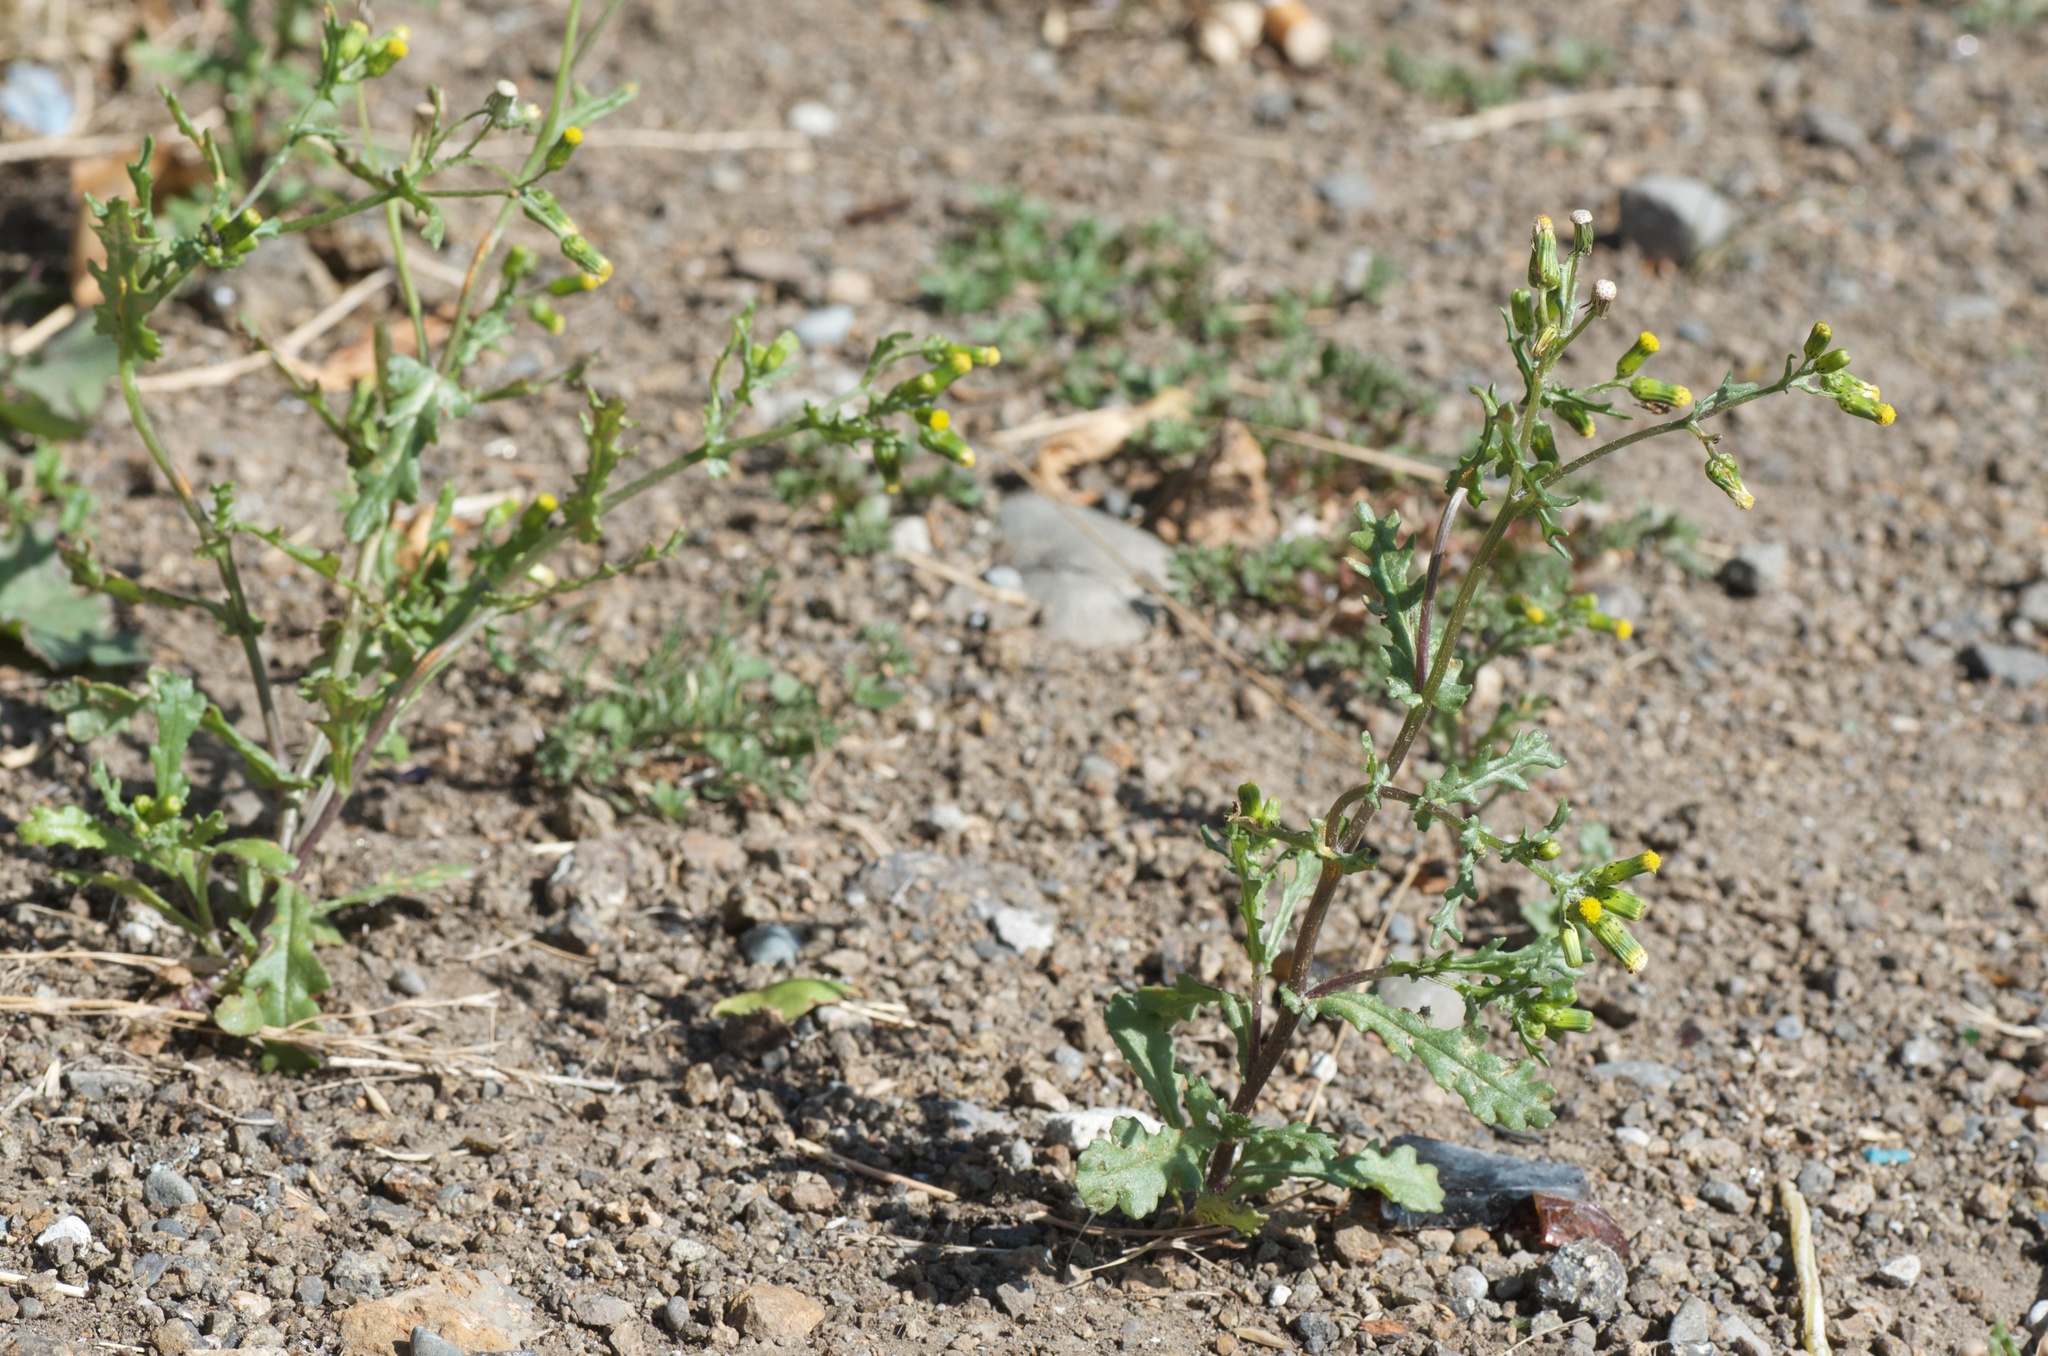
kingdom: Plantae
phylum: Tracheophyta
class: Magnoliopsida
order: Asterales
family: Asteraceae
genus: Senecio
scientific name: Senecio vulgaris
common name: Old-man-in-the-spring
